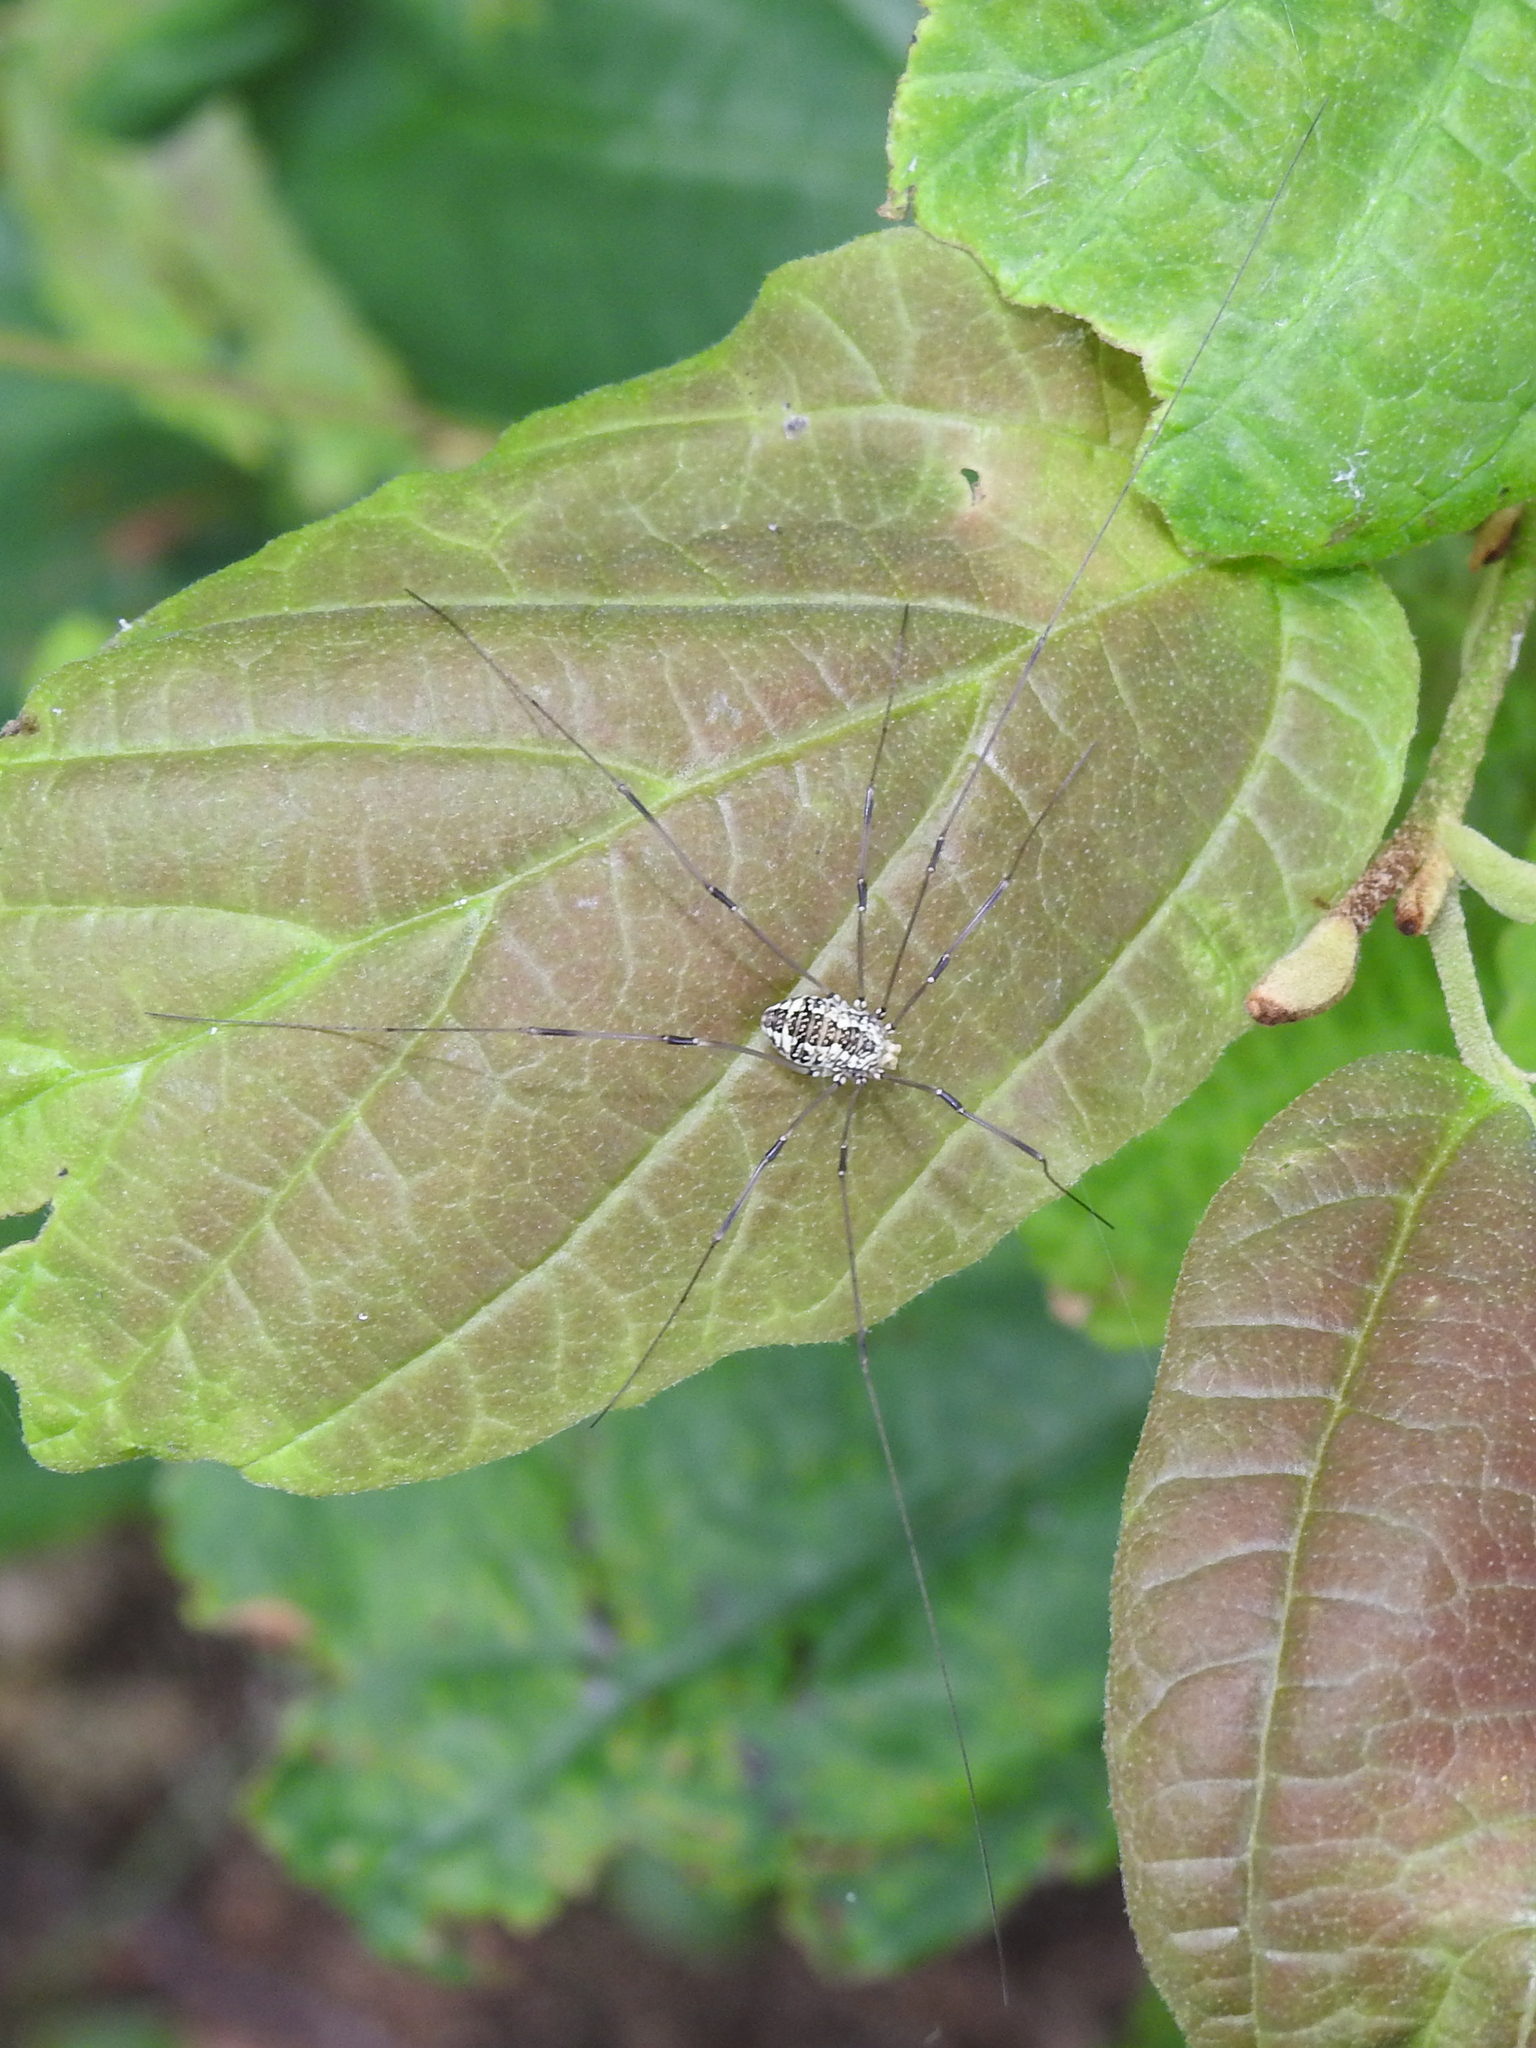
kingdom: Animalia
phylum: Arthropoda
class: Arachnida
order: Opiliones
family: Sclerosomatidae
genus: Leiobunum
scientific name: Leiobunum vittatum
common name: Eastern harvestman
